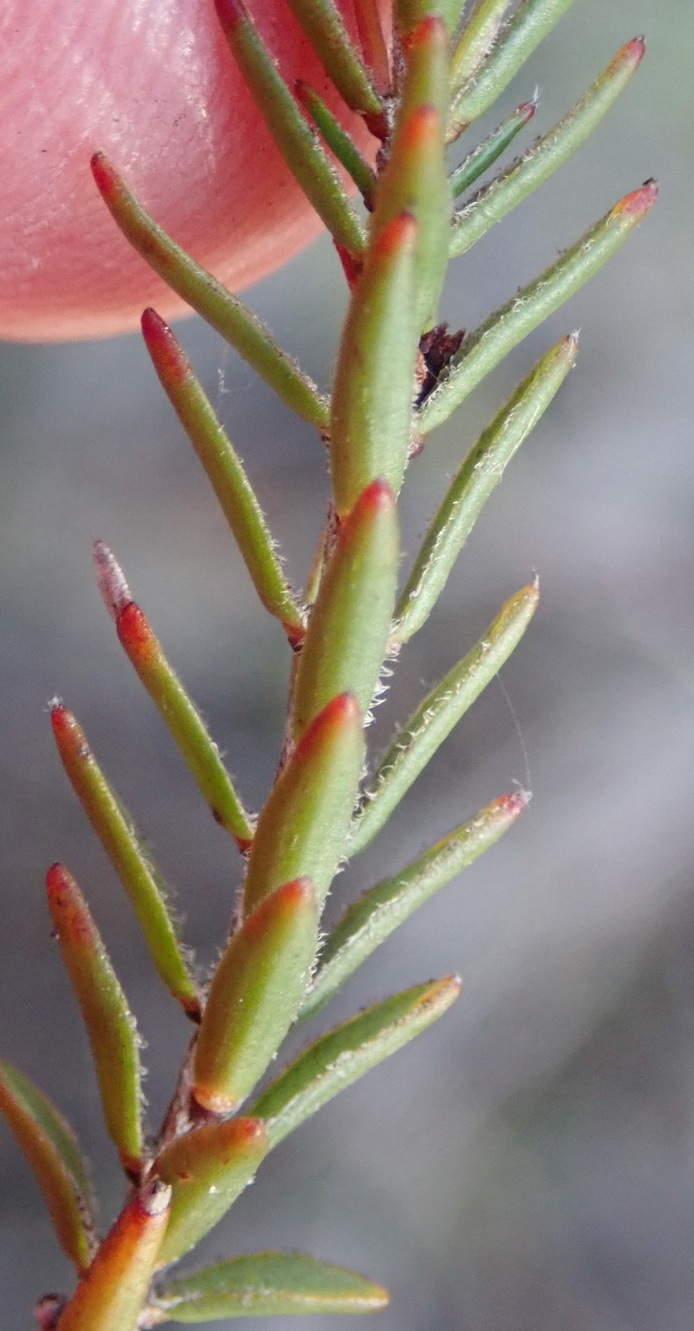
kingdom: Plantae
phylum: Tracheophyta
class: Magnoliopsida
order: Malvales
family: Thymelaeaceae
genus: Struthiola
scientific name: Struthiola eckloniana
